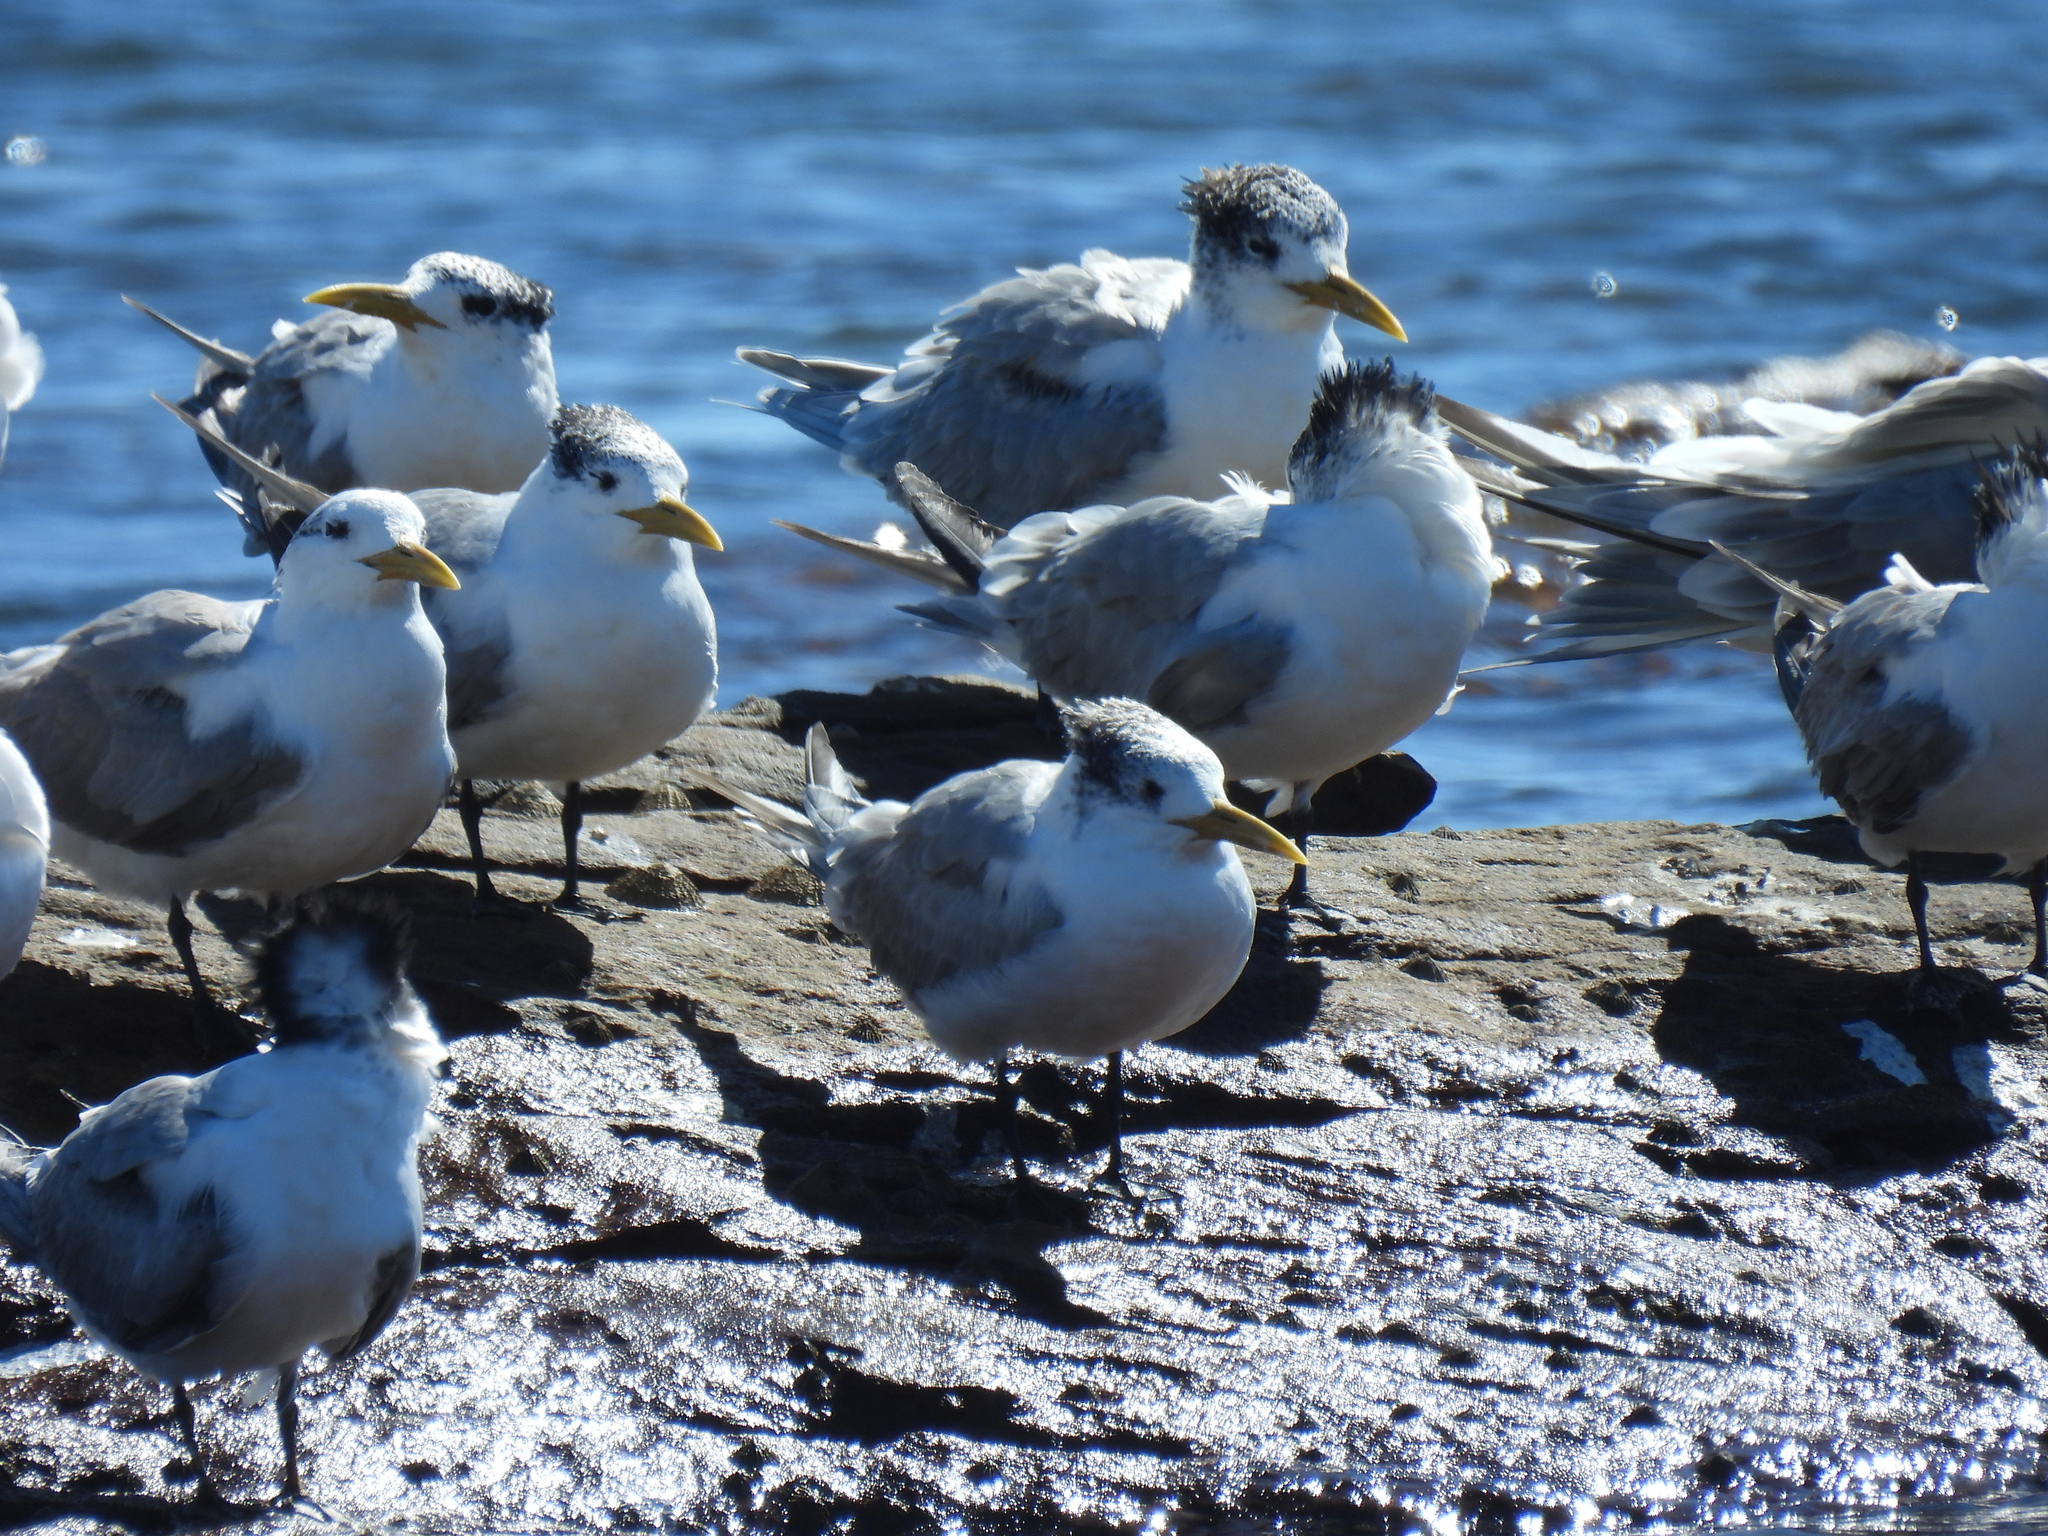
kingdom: Animalia
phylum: Chordata
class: Aves
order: Charadriiformes
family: Laridae
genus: Thalasseus
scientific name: Thalasseus bergii
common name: Greater crested tern
